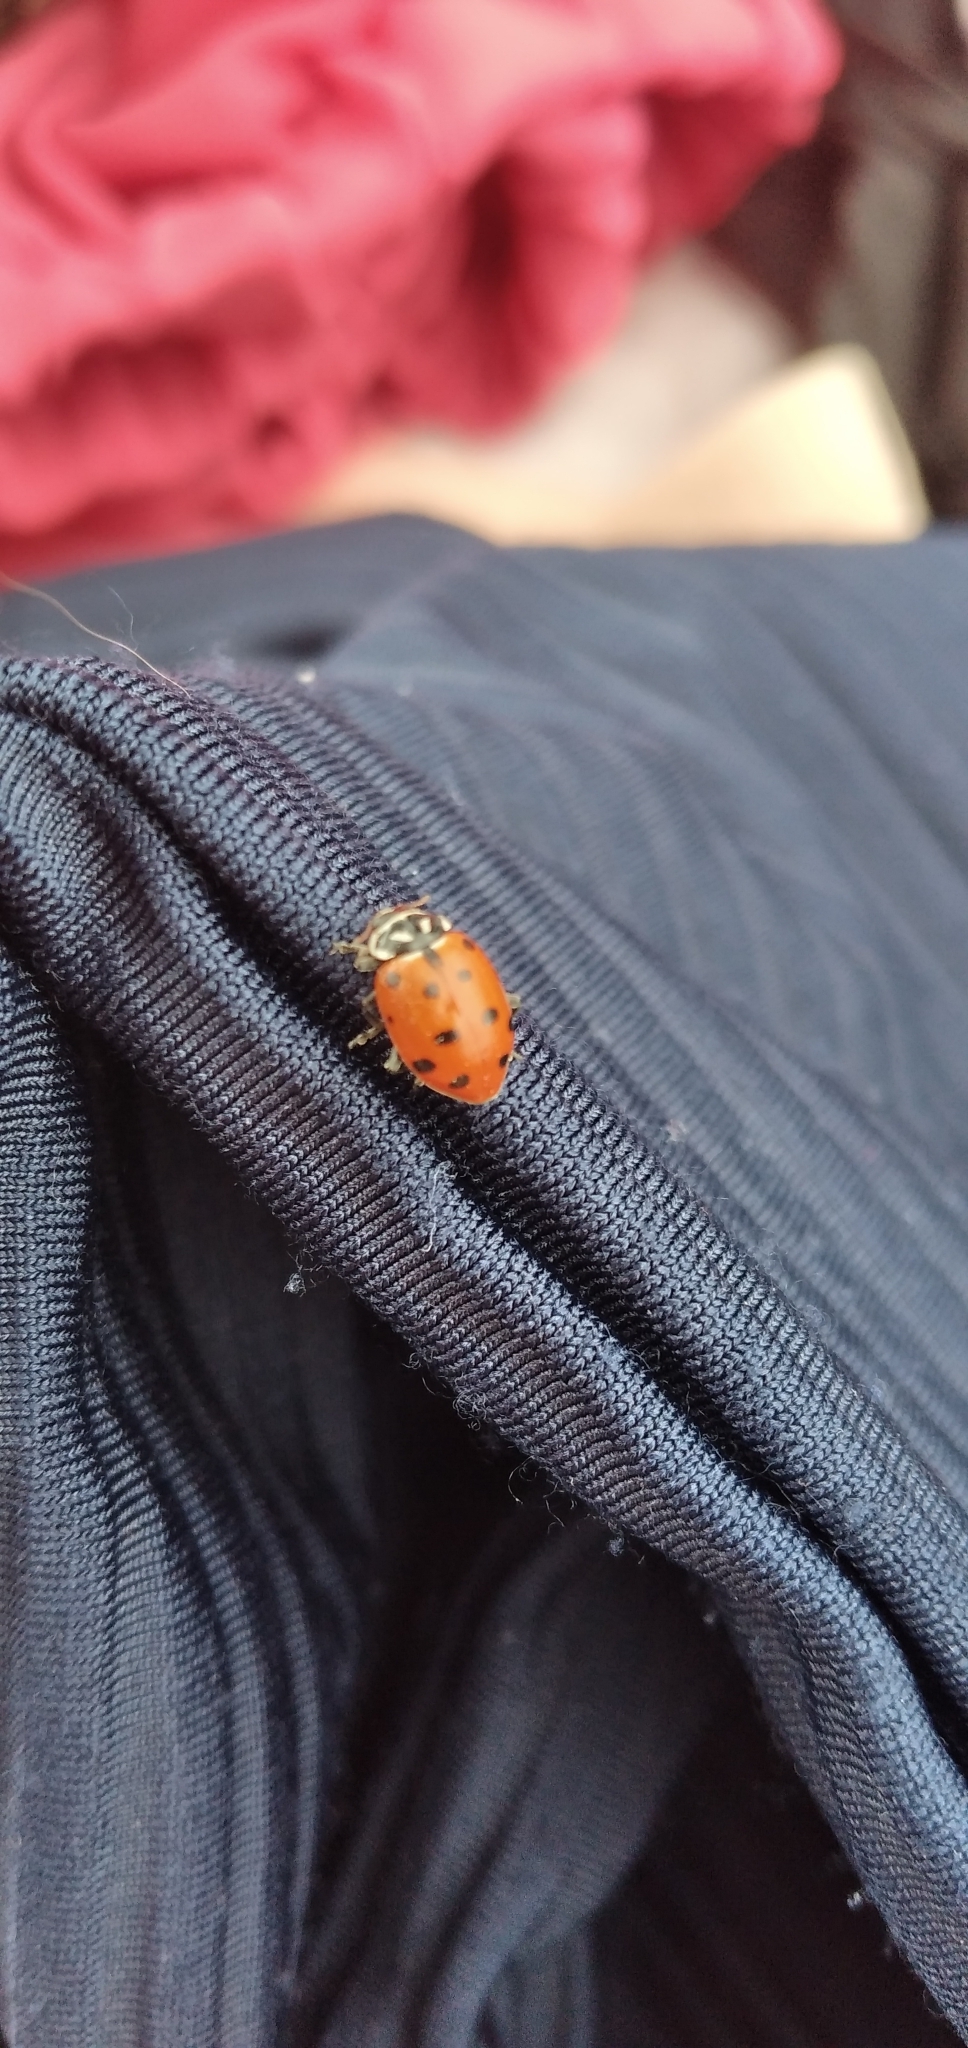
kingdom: Animalia
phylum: Arthropoda
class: Insecta
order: Coleoptera
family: Coccinellidae
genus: Hippodamia
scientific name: Hippodamia convergens
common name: Convergent lady beetle
